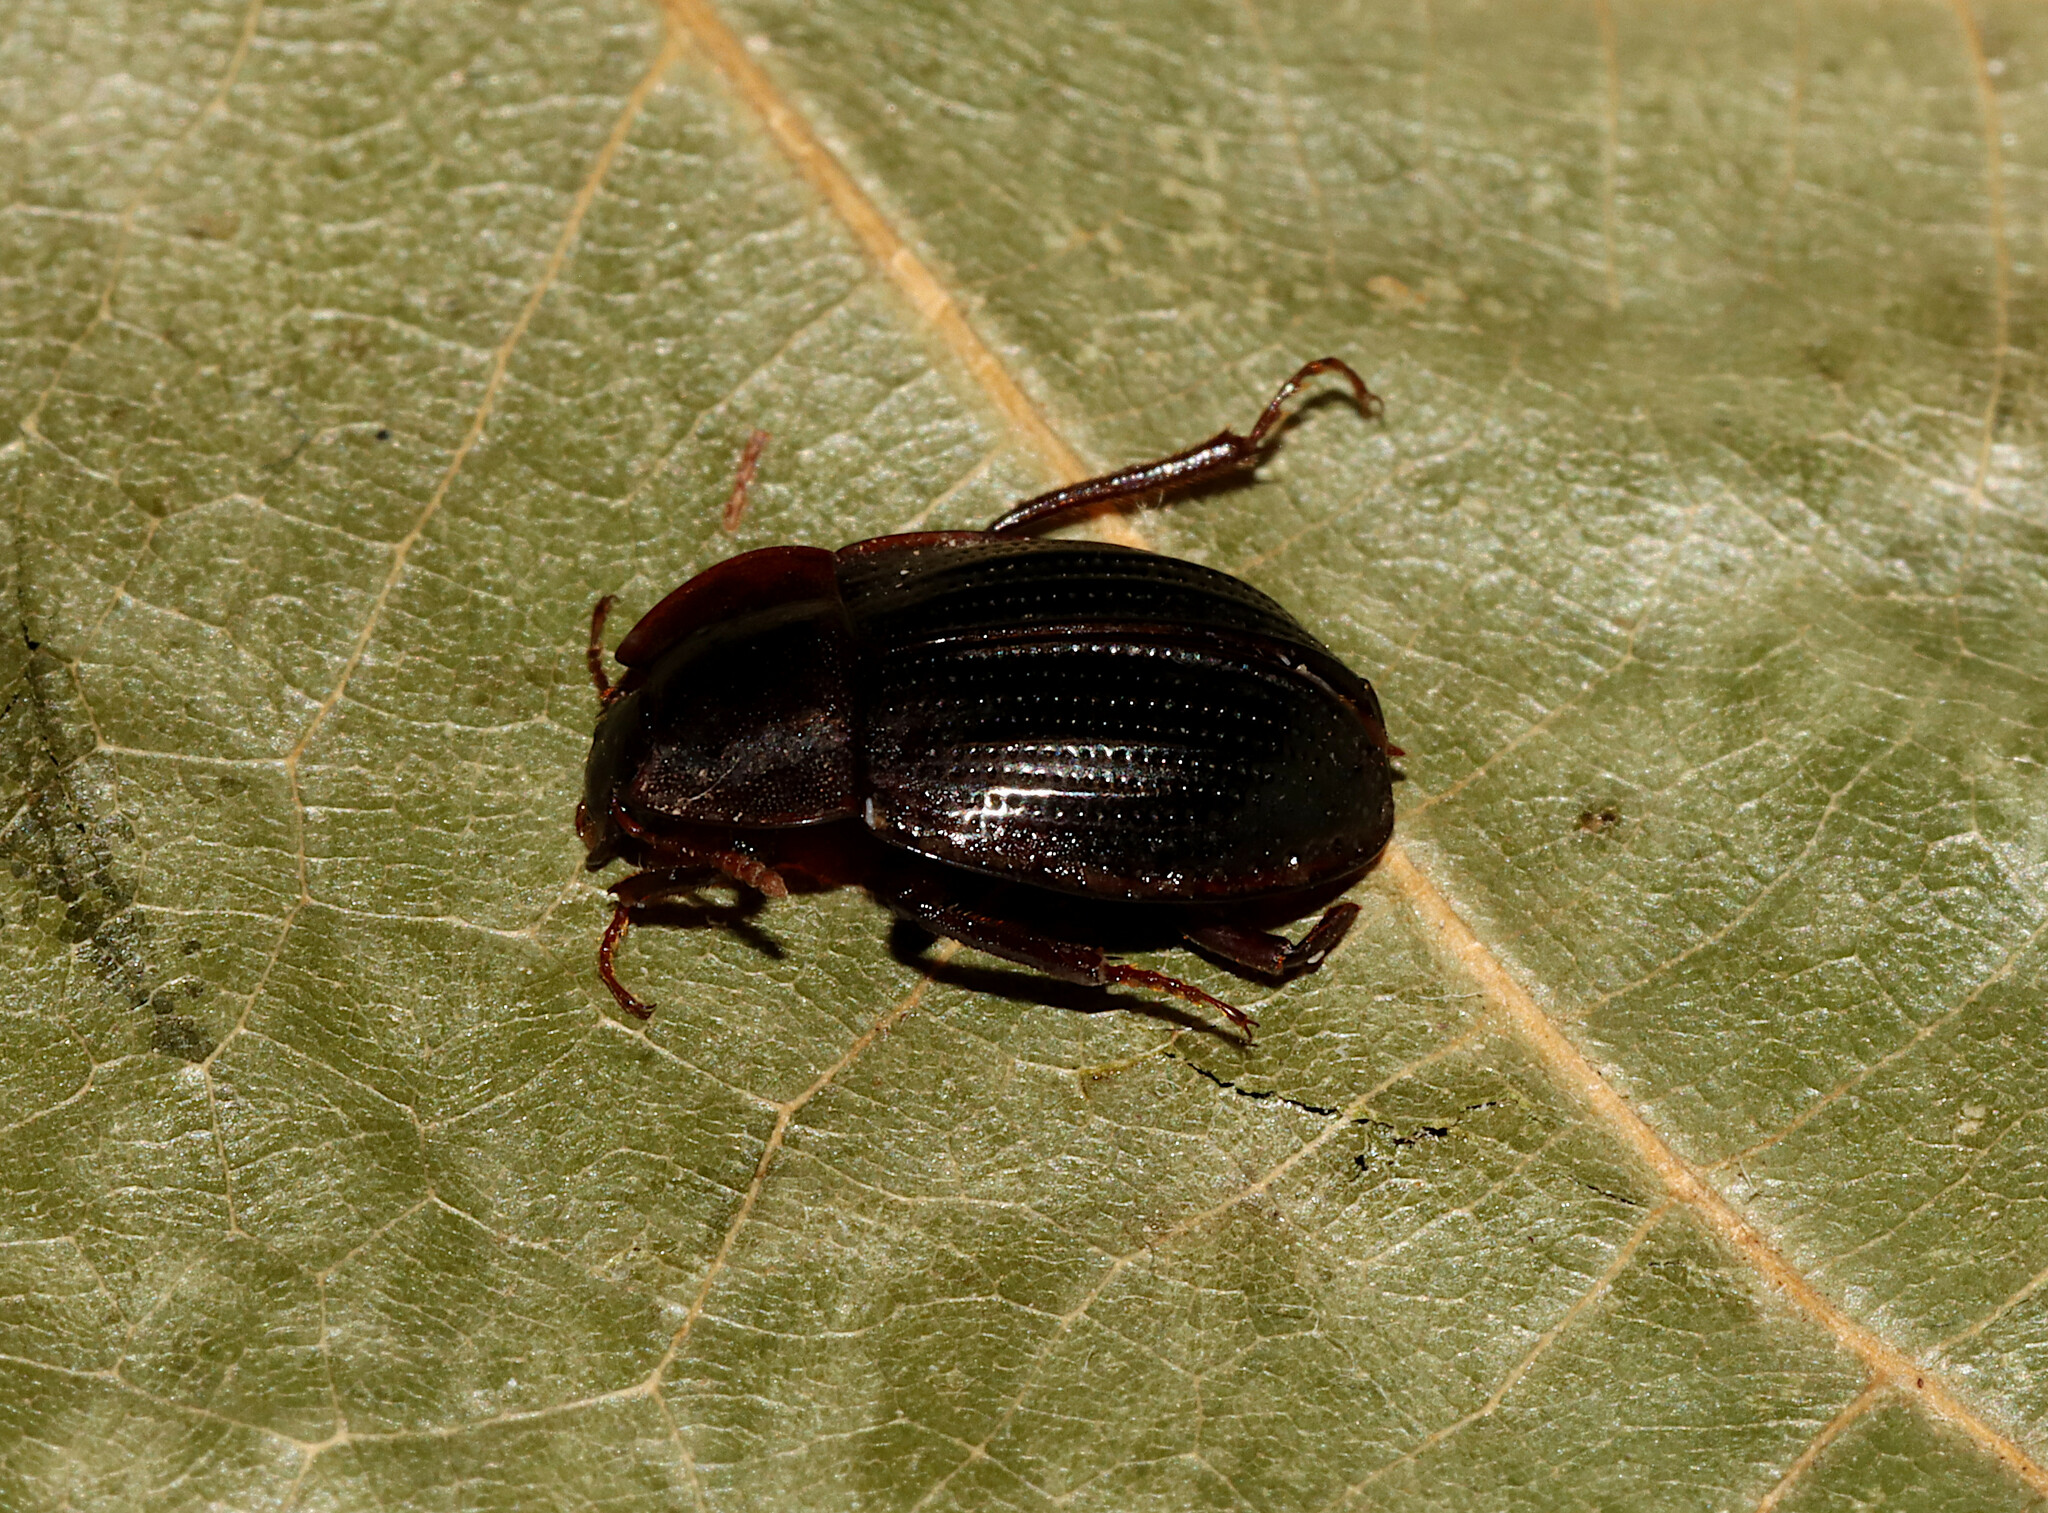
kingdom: Animalia
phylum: Arthropoda
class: Insecta
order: Coleoptera
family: Agyrtidae
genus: Necrophilus
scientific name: Necrophilus pettitii
